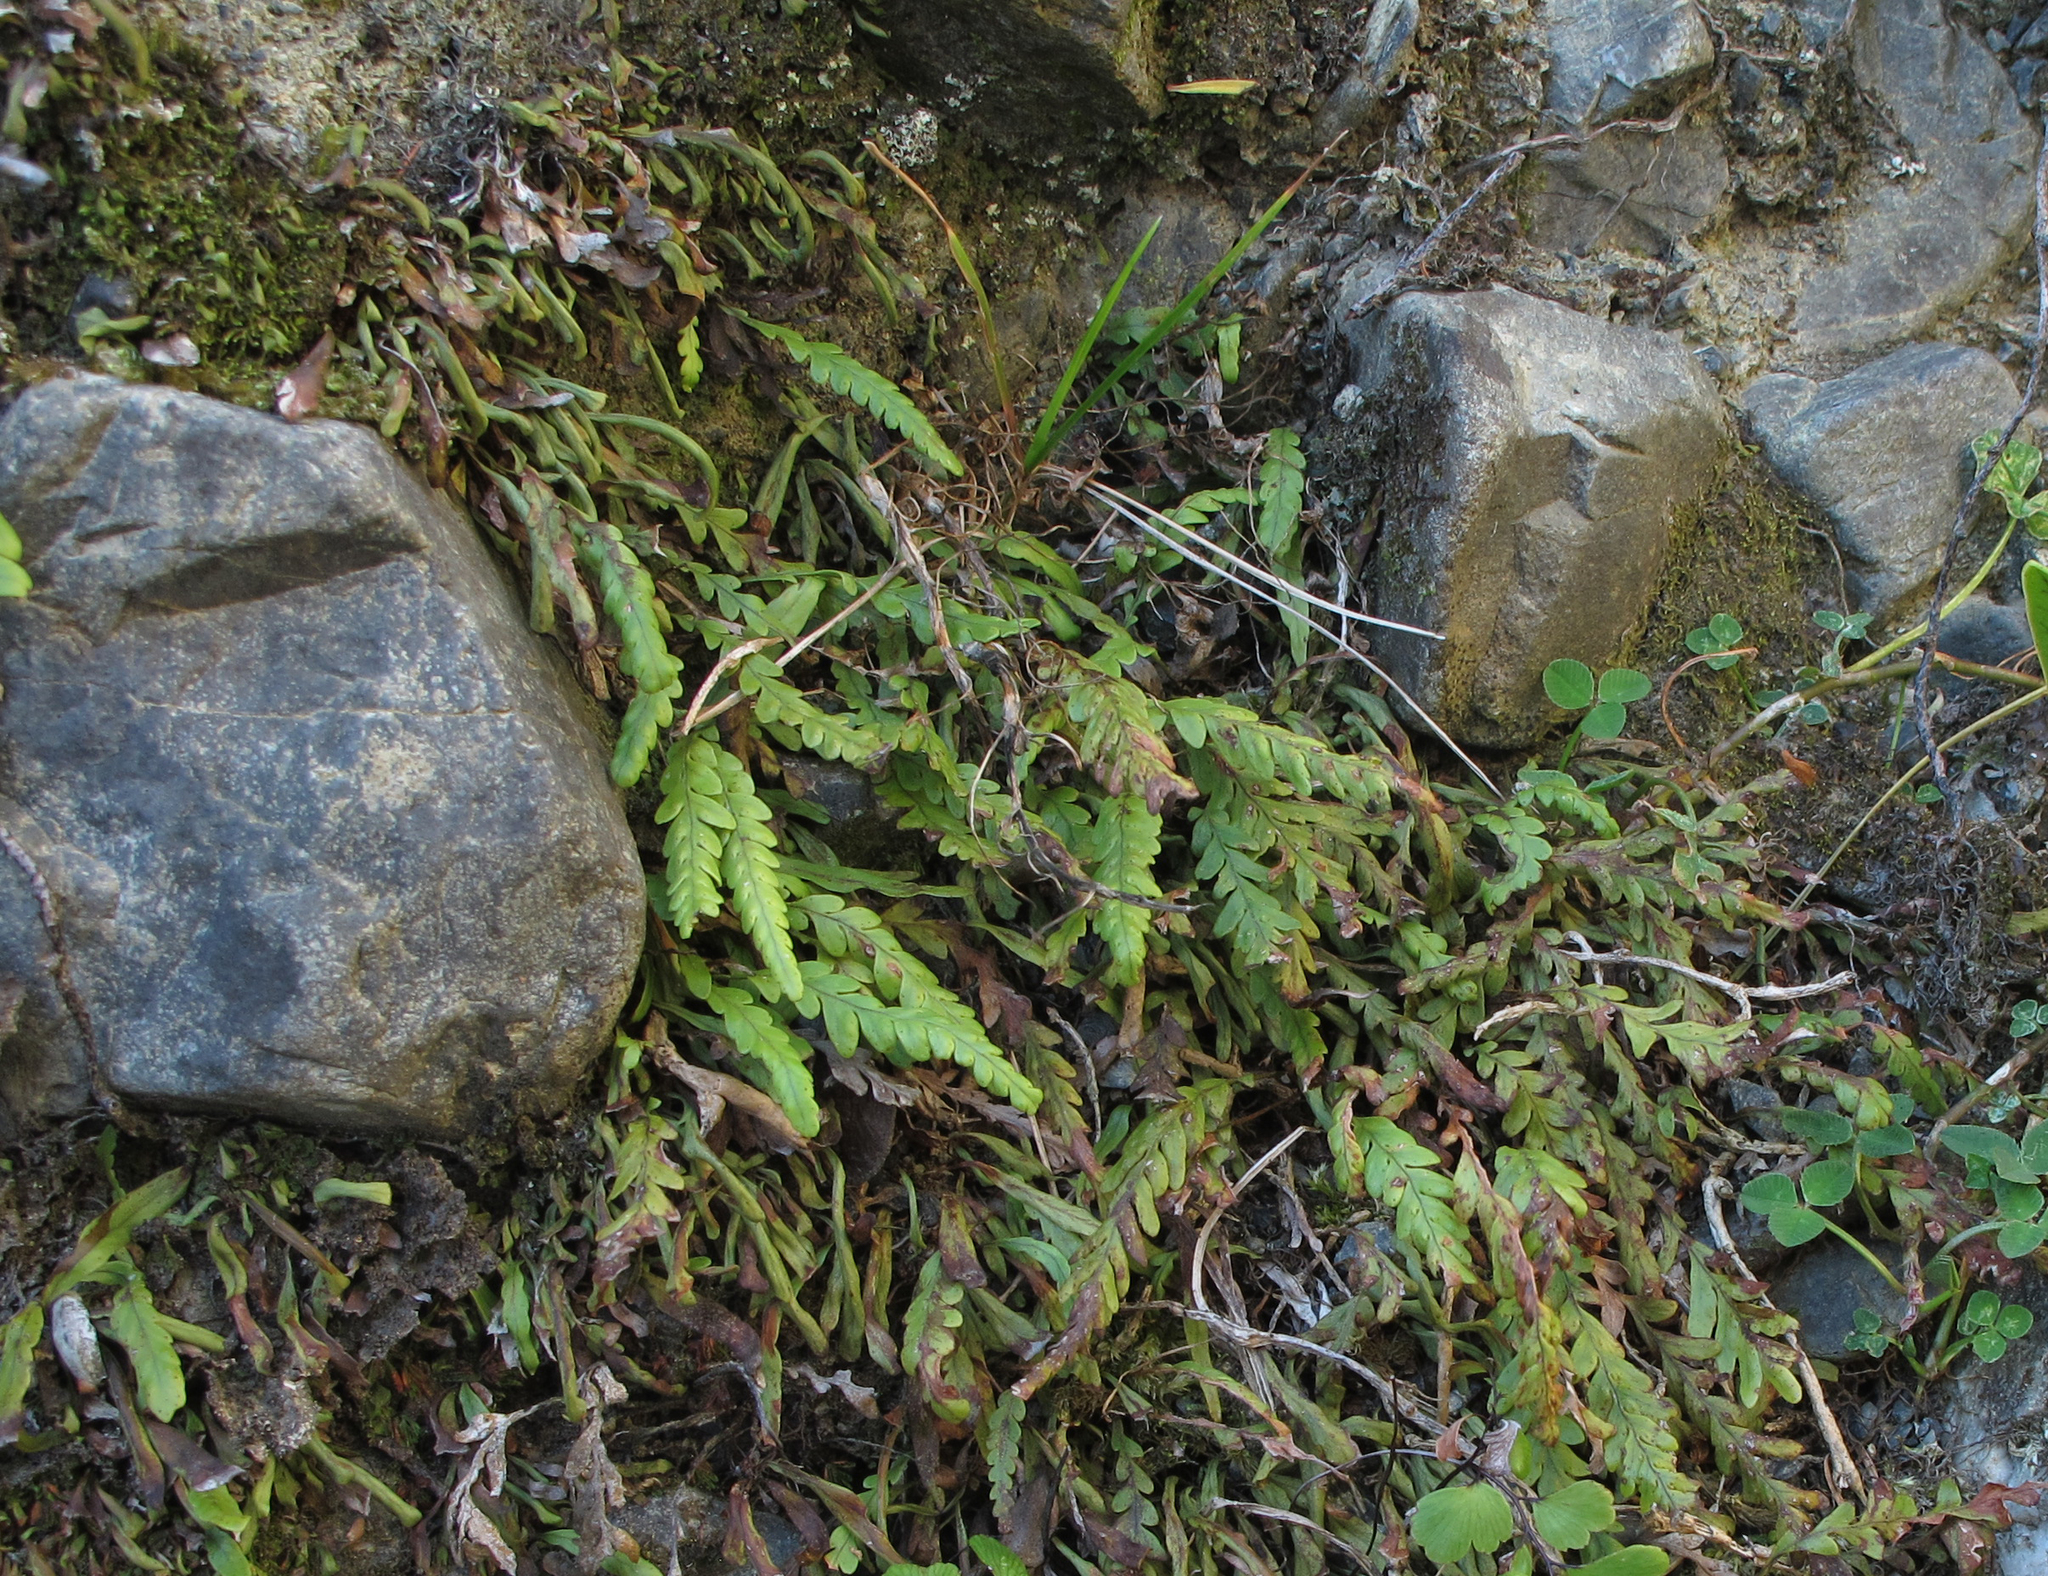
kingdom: Plantae
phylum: Tracheophyta
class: Polypodiopsida
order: Polypodiales
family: Polypodiaceae
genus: Notogrammitis
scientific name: Notogrammitis heterophylla
